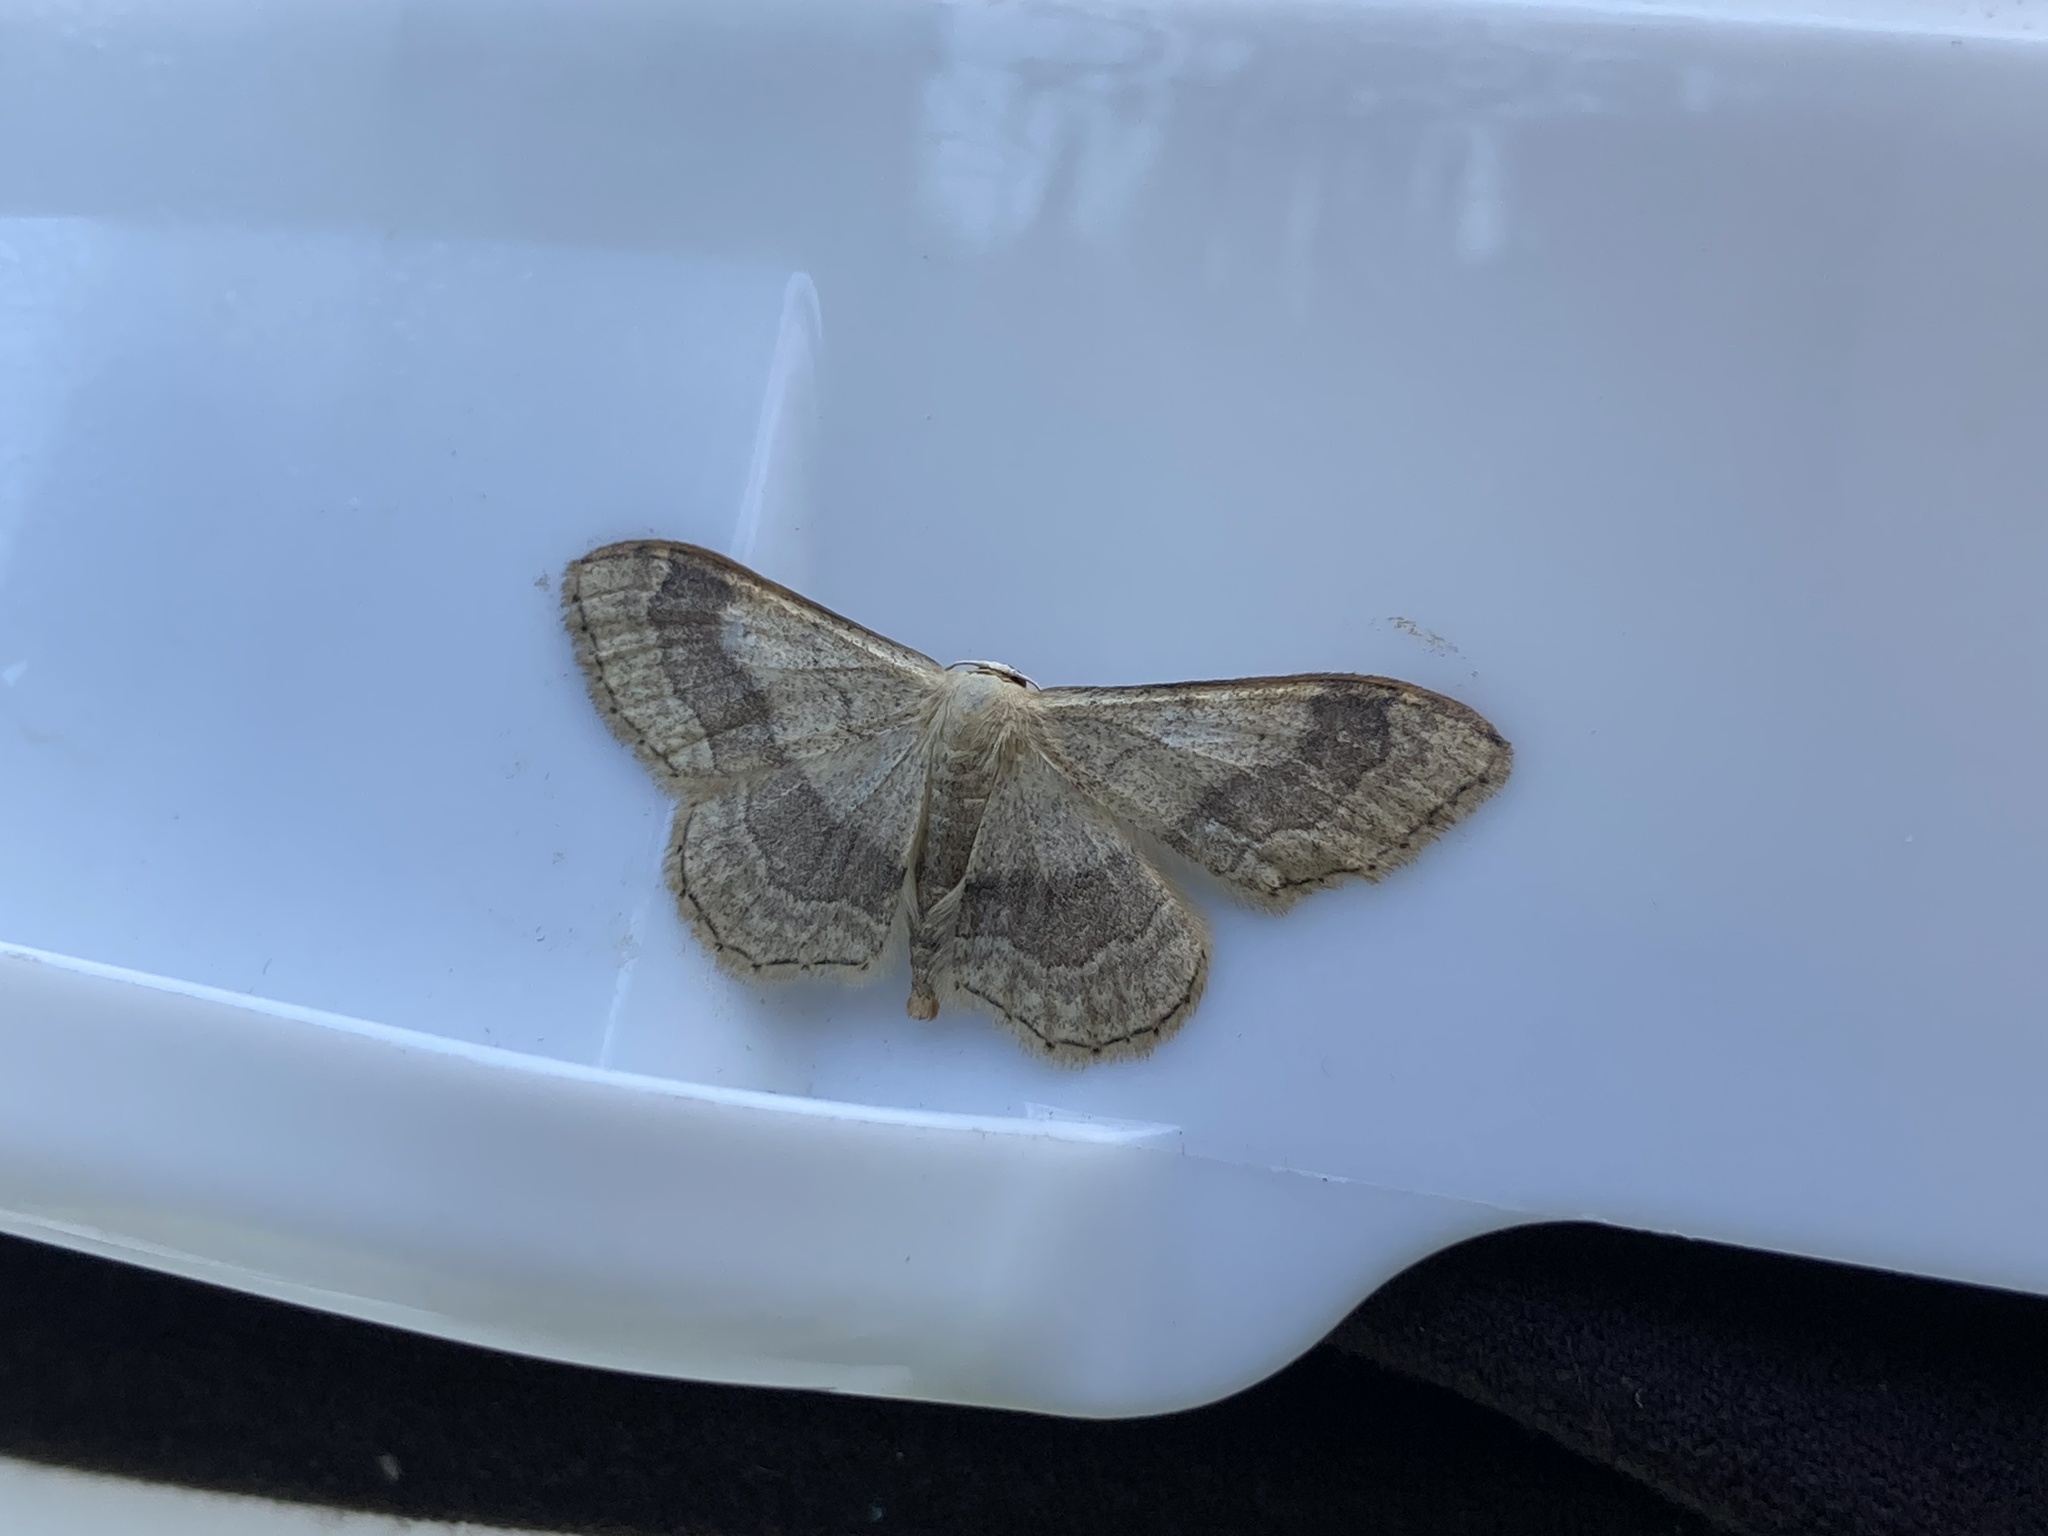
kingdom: Animalia
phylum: Arthropoda
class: Insecta
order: Lepidoptera
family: Geometridae
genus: Idaea
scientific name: Idaea aversata
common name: Riband wave
